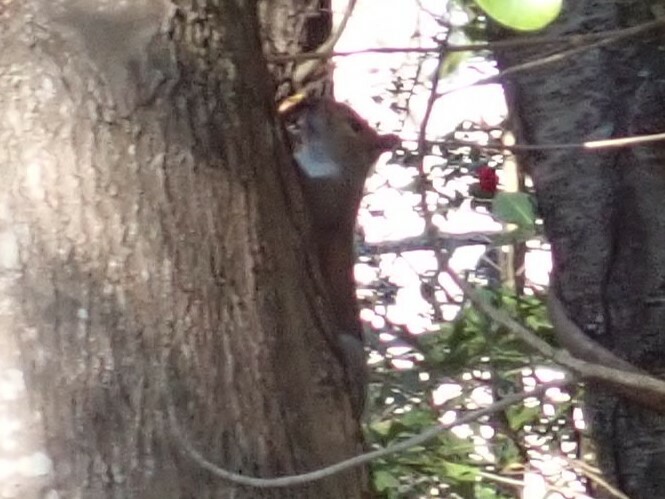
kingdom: Animalia
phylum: Chordata
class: Mammalia
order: Rodentia
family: Sciuridae
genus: Sciurus
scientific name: Sciurus carolinensis
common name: Eastern gray squirrel
